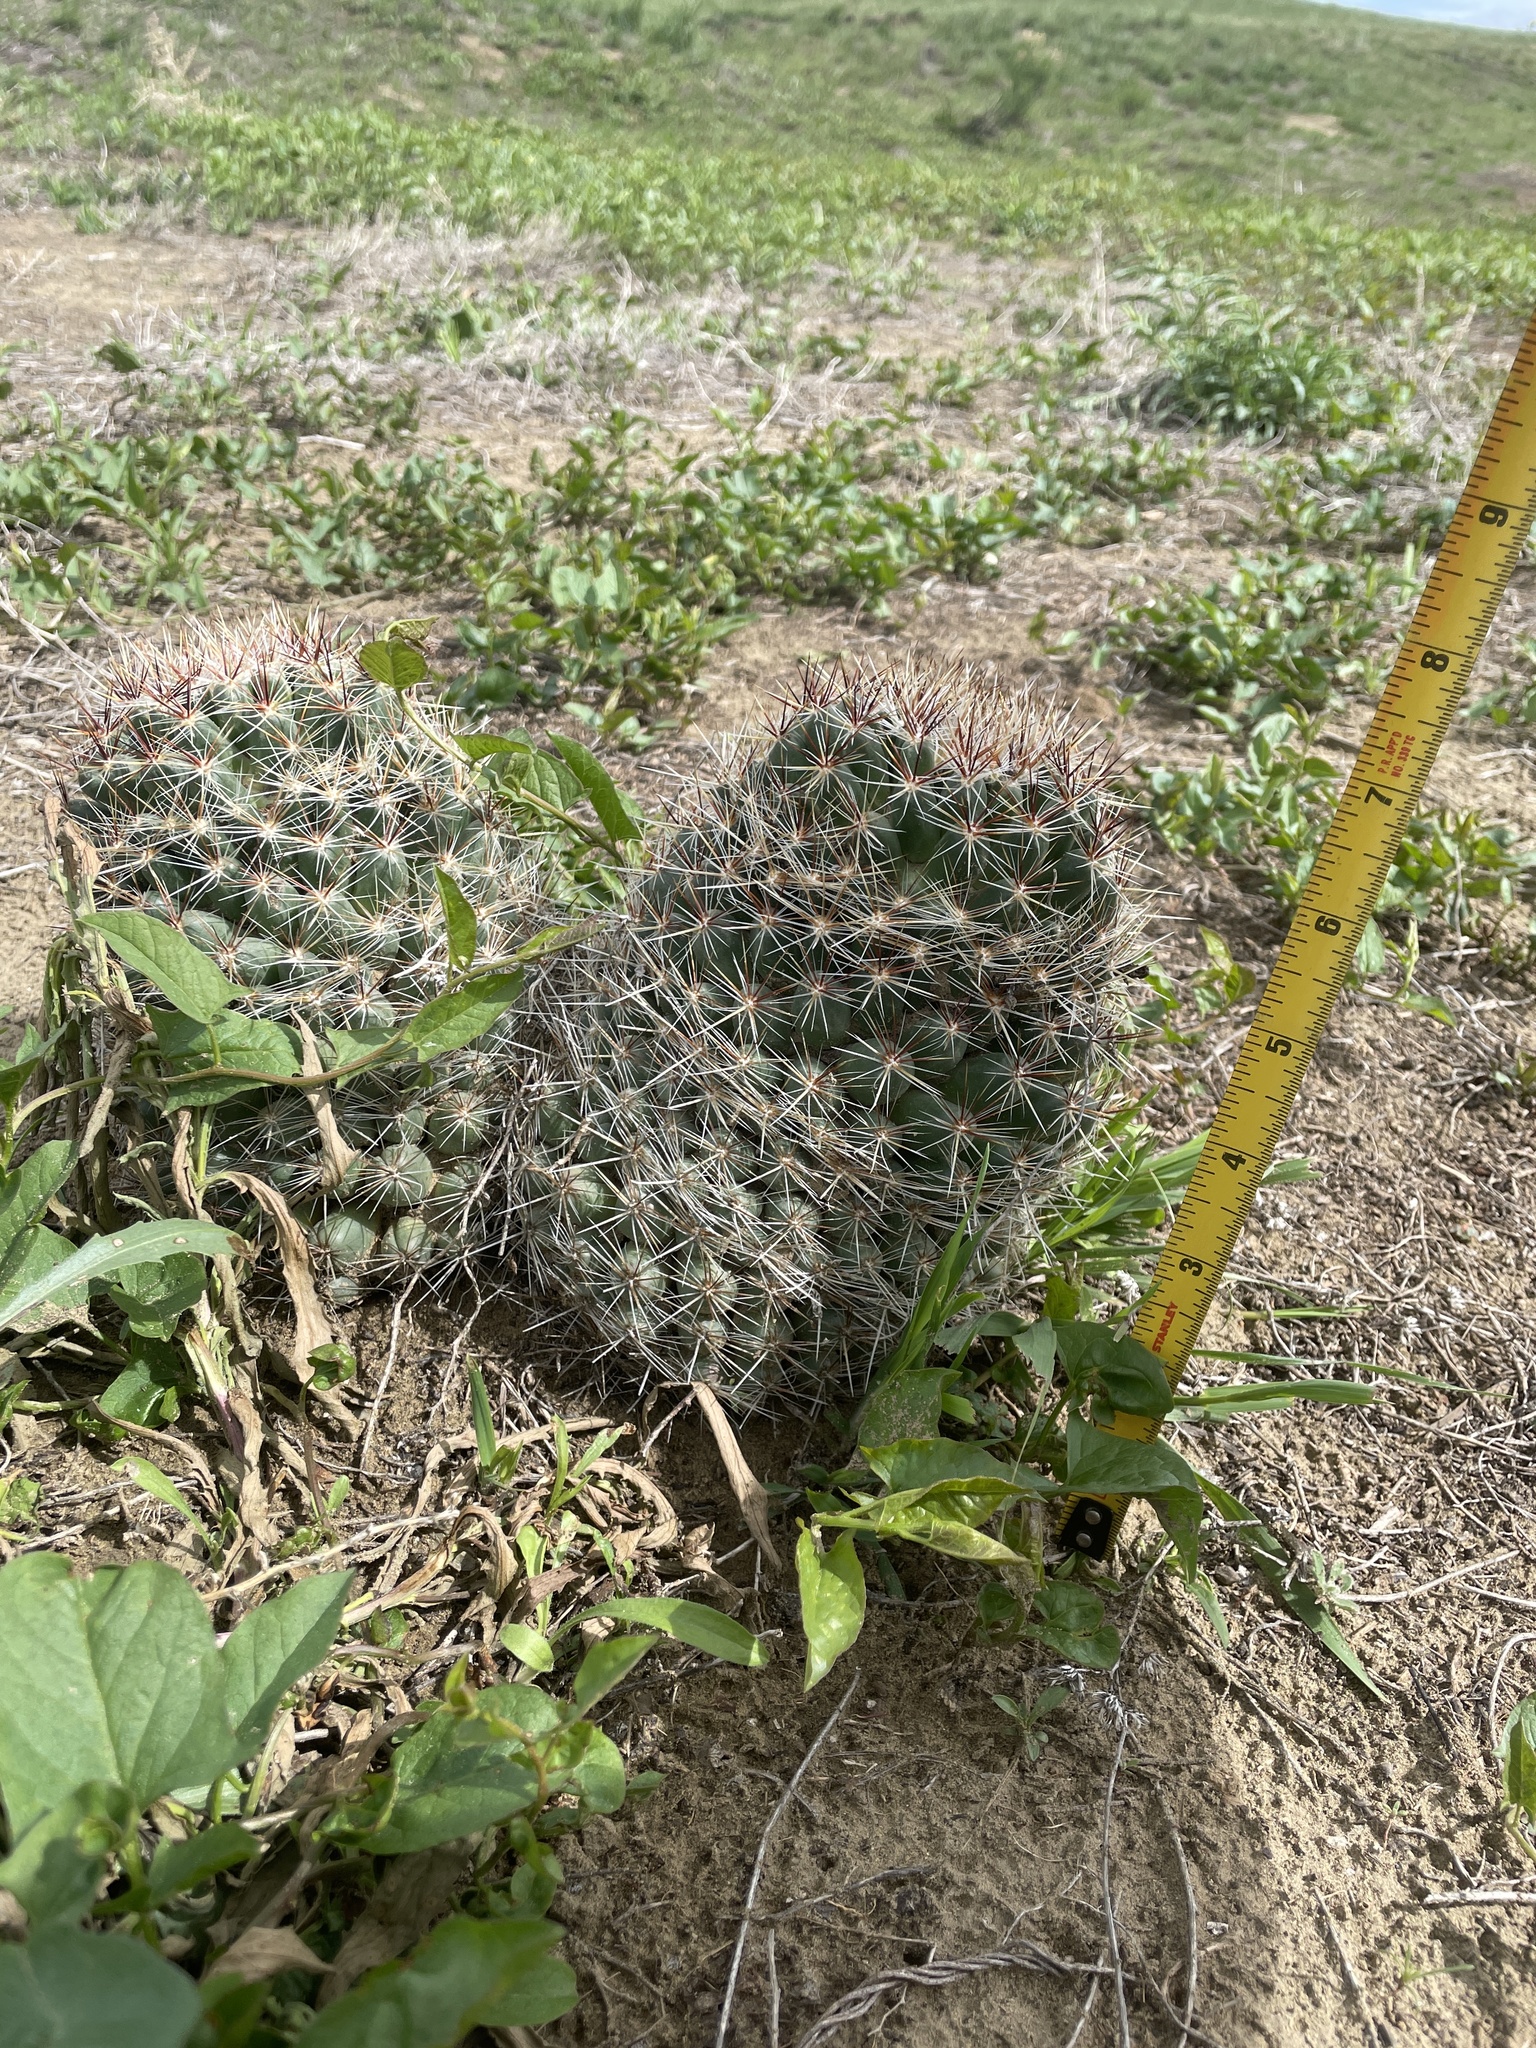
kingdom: Plantae
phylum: Tracheophyta
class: Magnoliopsida
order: Caryophyllales
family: Cactaceae
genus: Pelecyphora
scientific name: Pelecyphora vivipara
